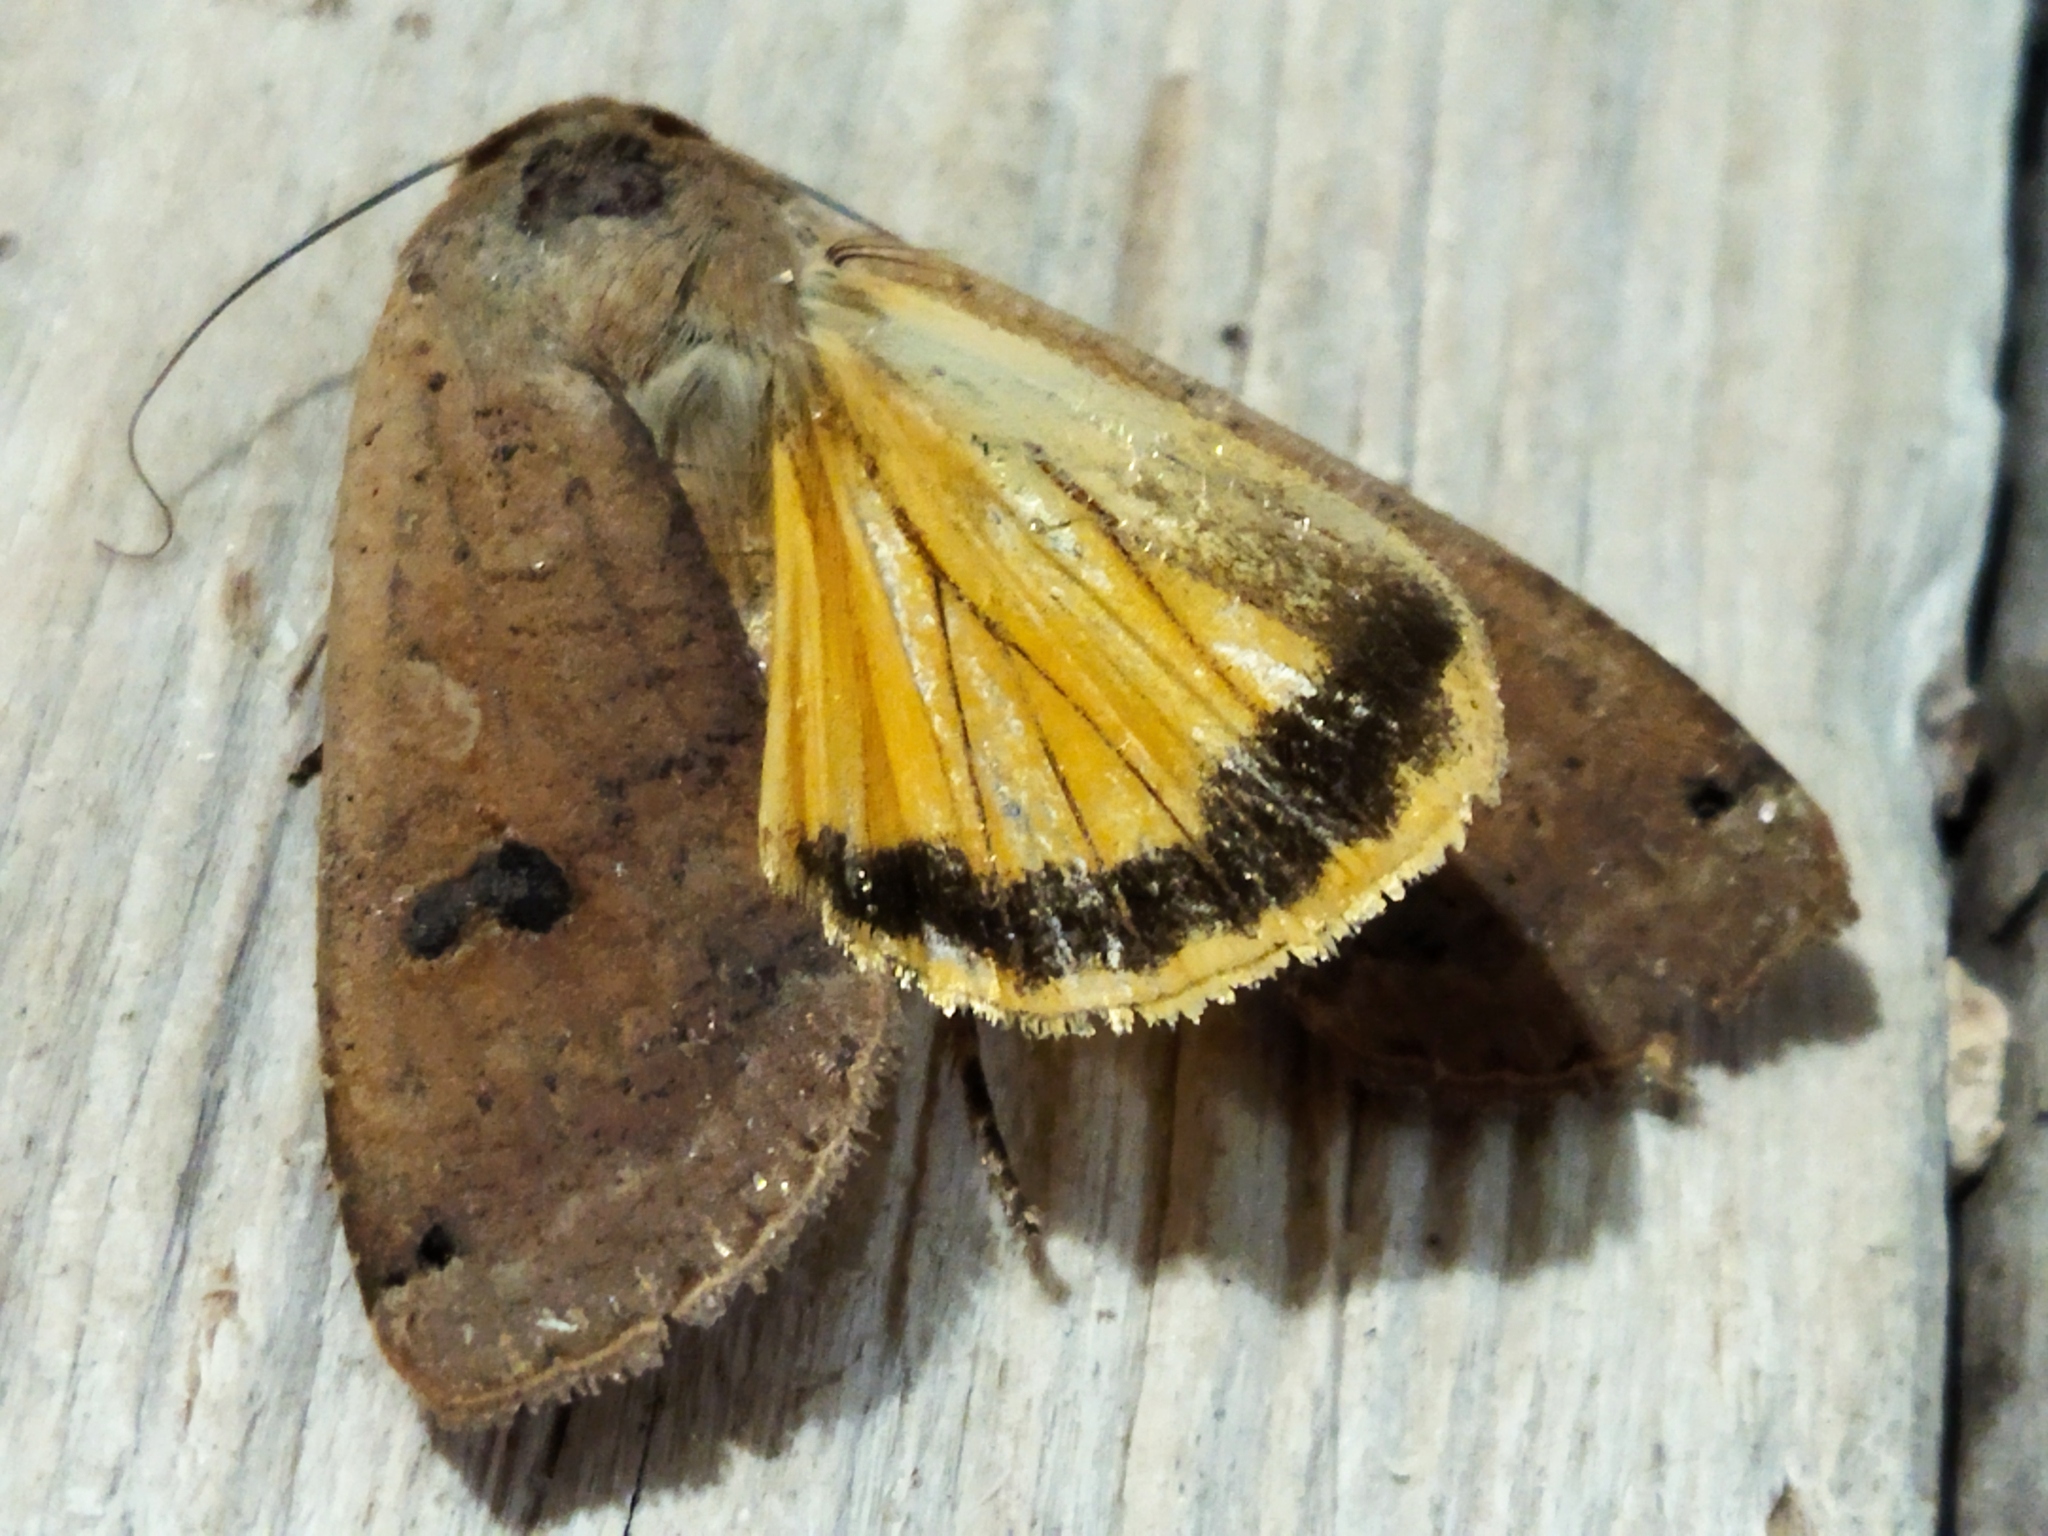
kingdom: Animalia
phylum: Arthropoda
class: Insecta
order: Lepidoptera
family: Noctuidae
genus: Noctua
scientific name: Noctua pronuba
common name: Large yellow underwing
